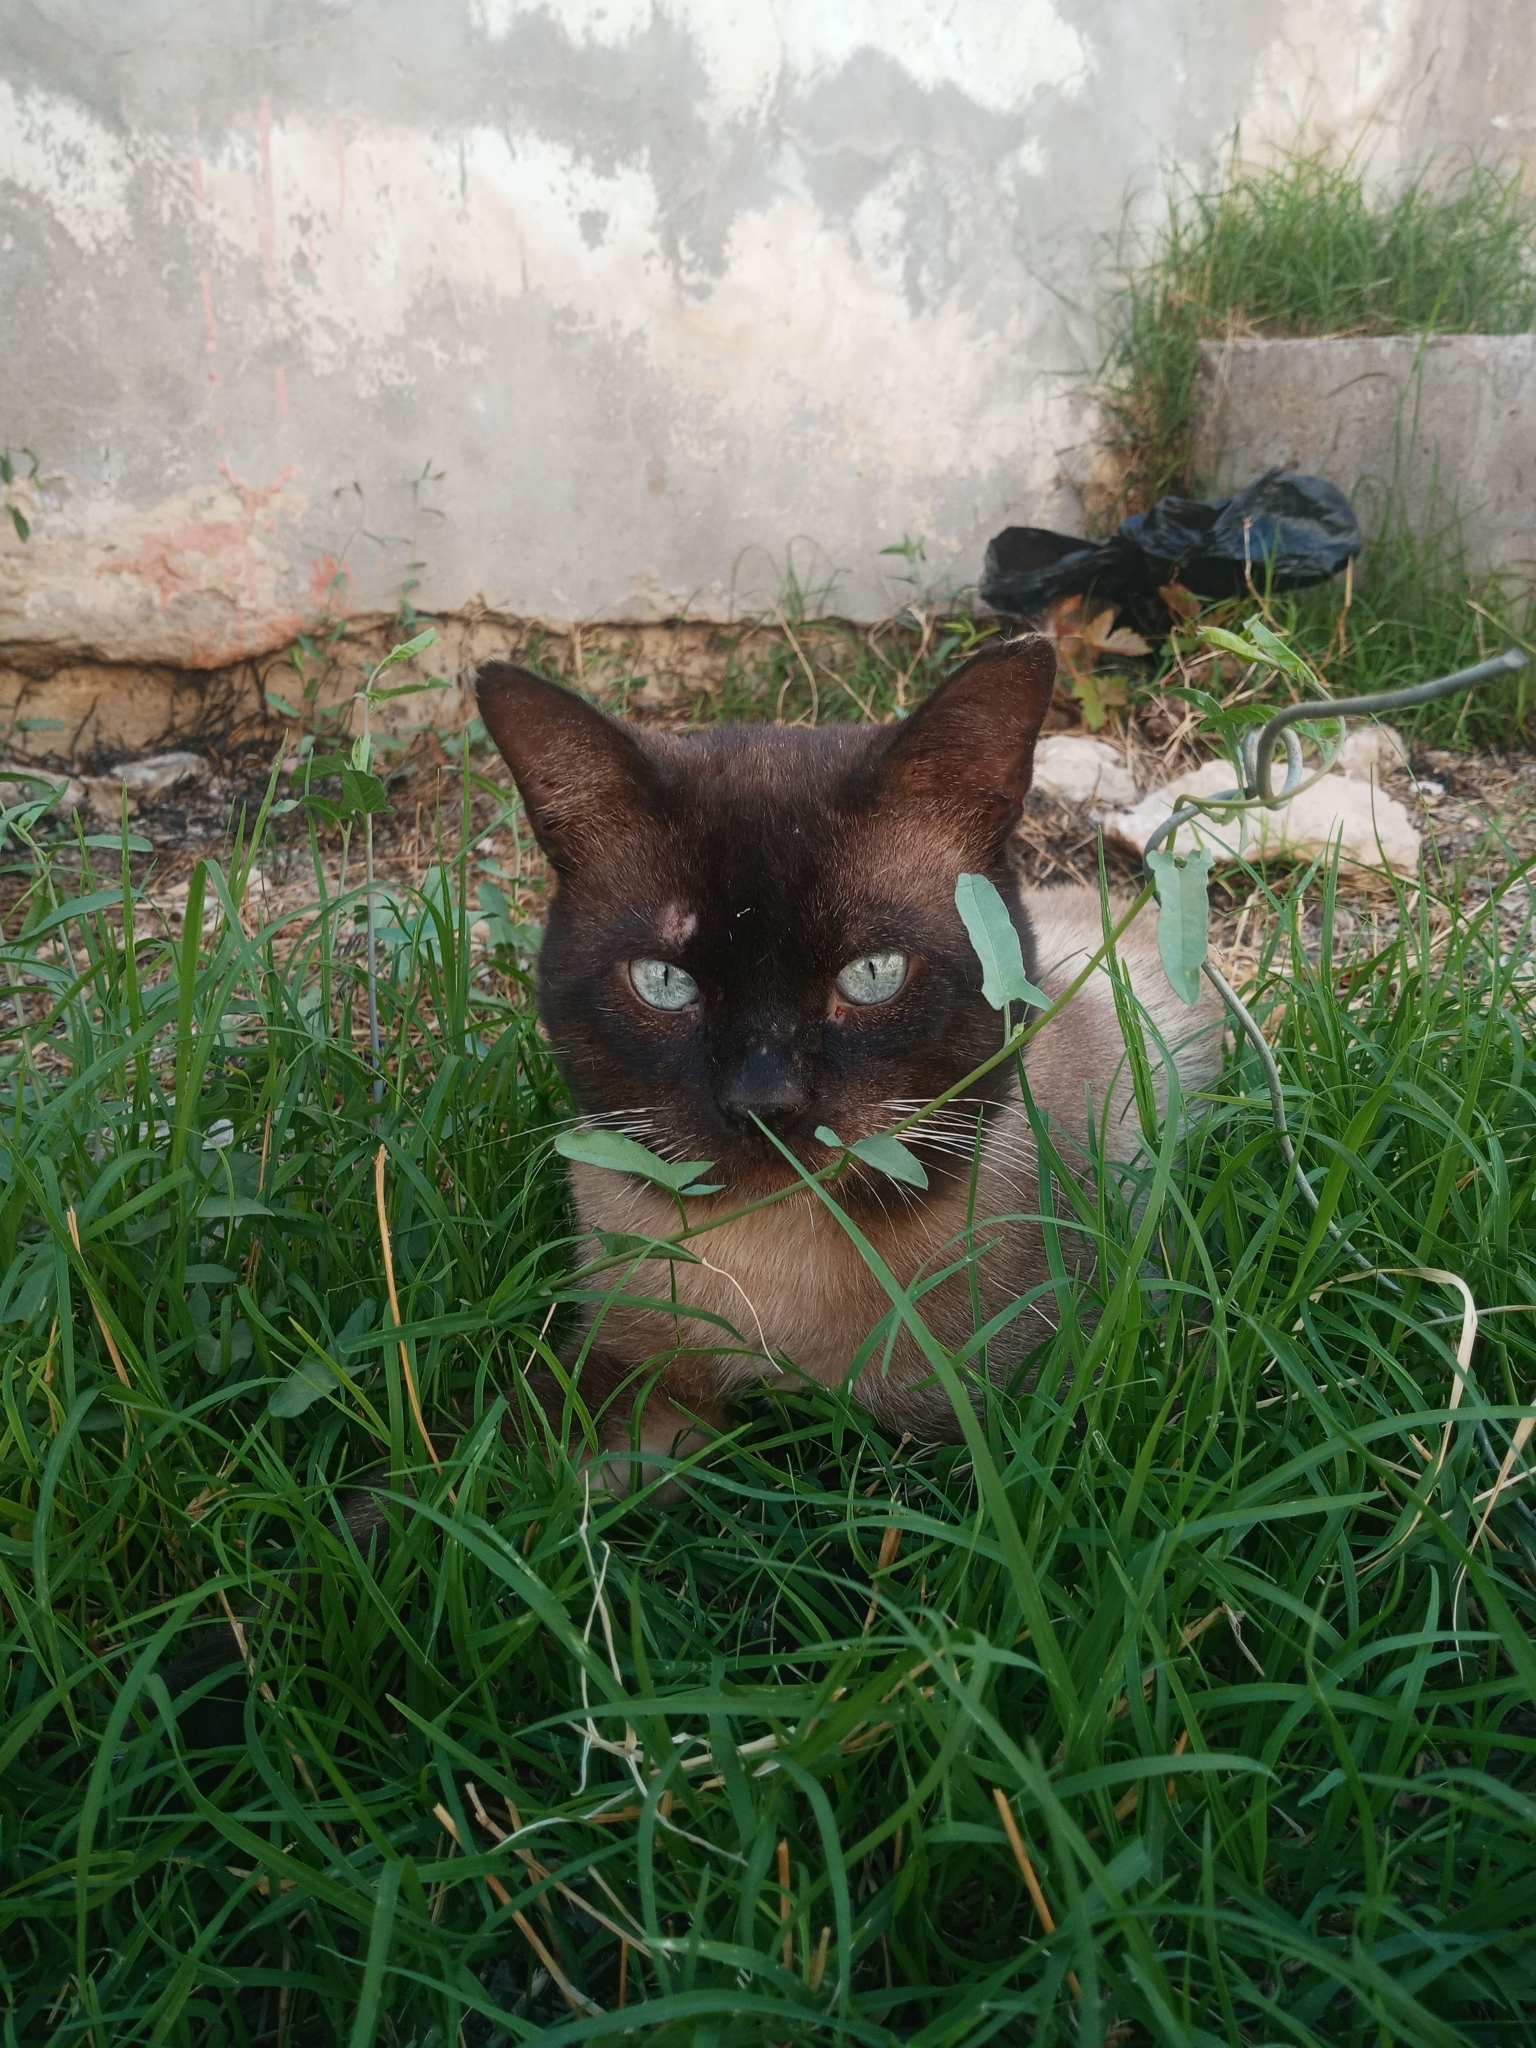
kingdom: Animalia
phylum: Chordata
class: Mammalia
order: Carnivora
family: Felidae
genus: Felis
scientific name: Felis catus
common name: Domestic cat
